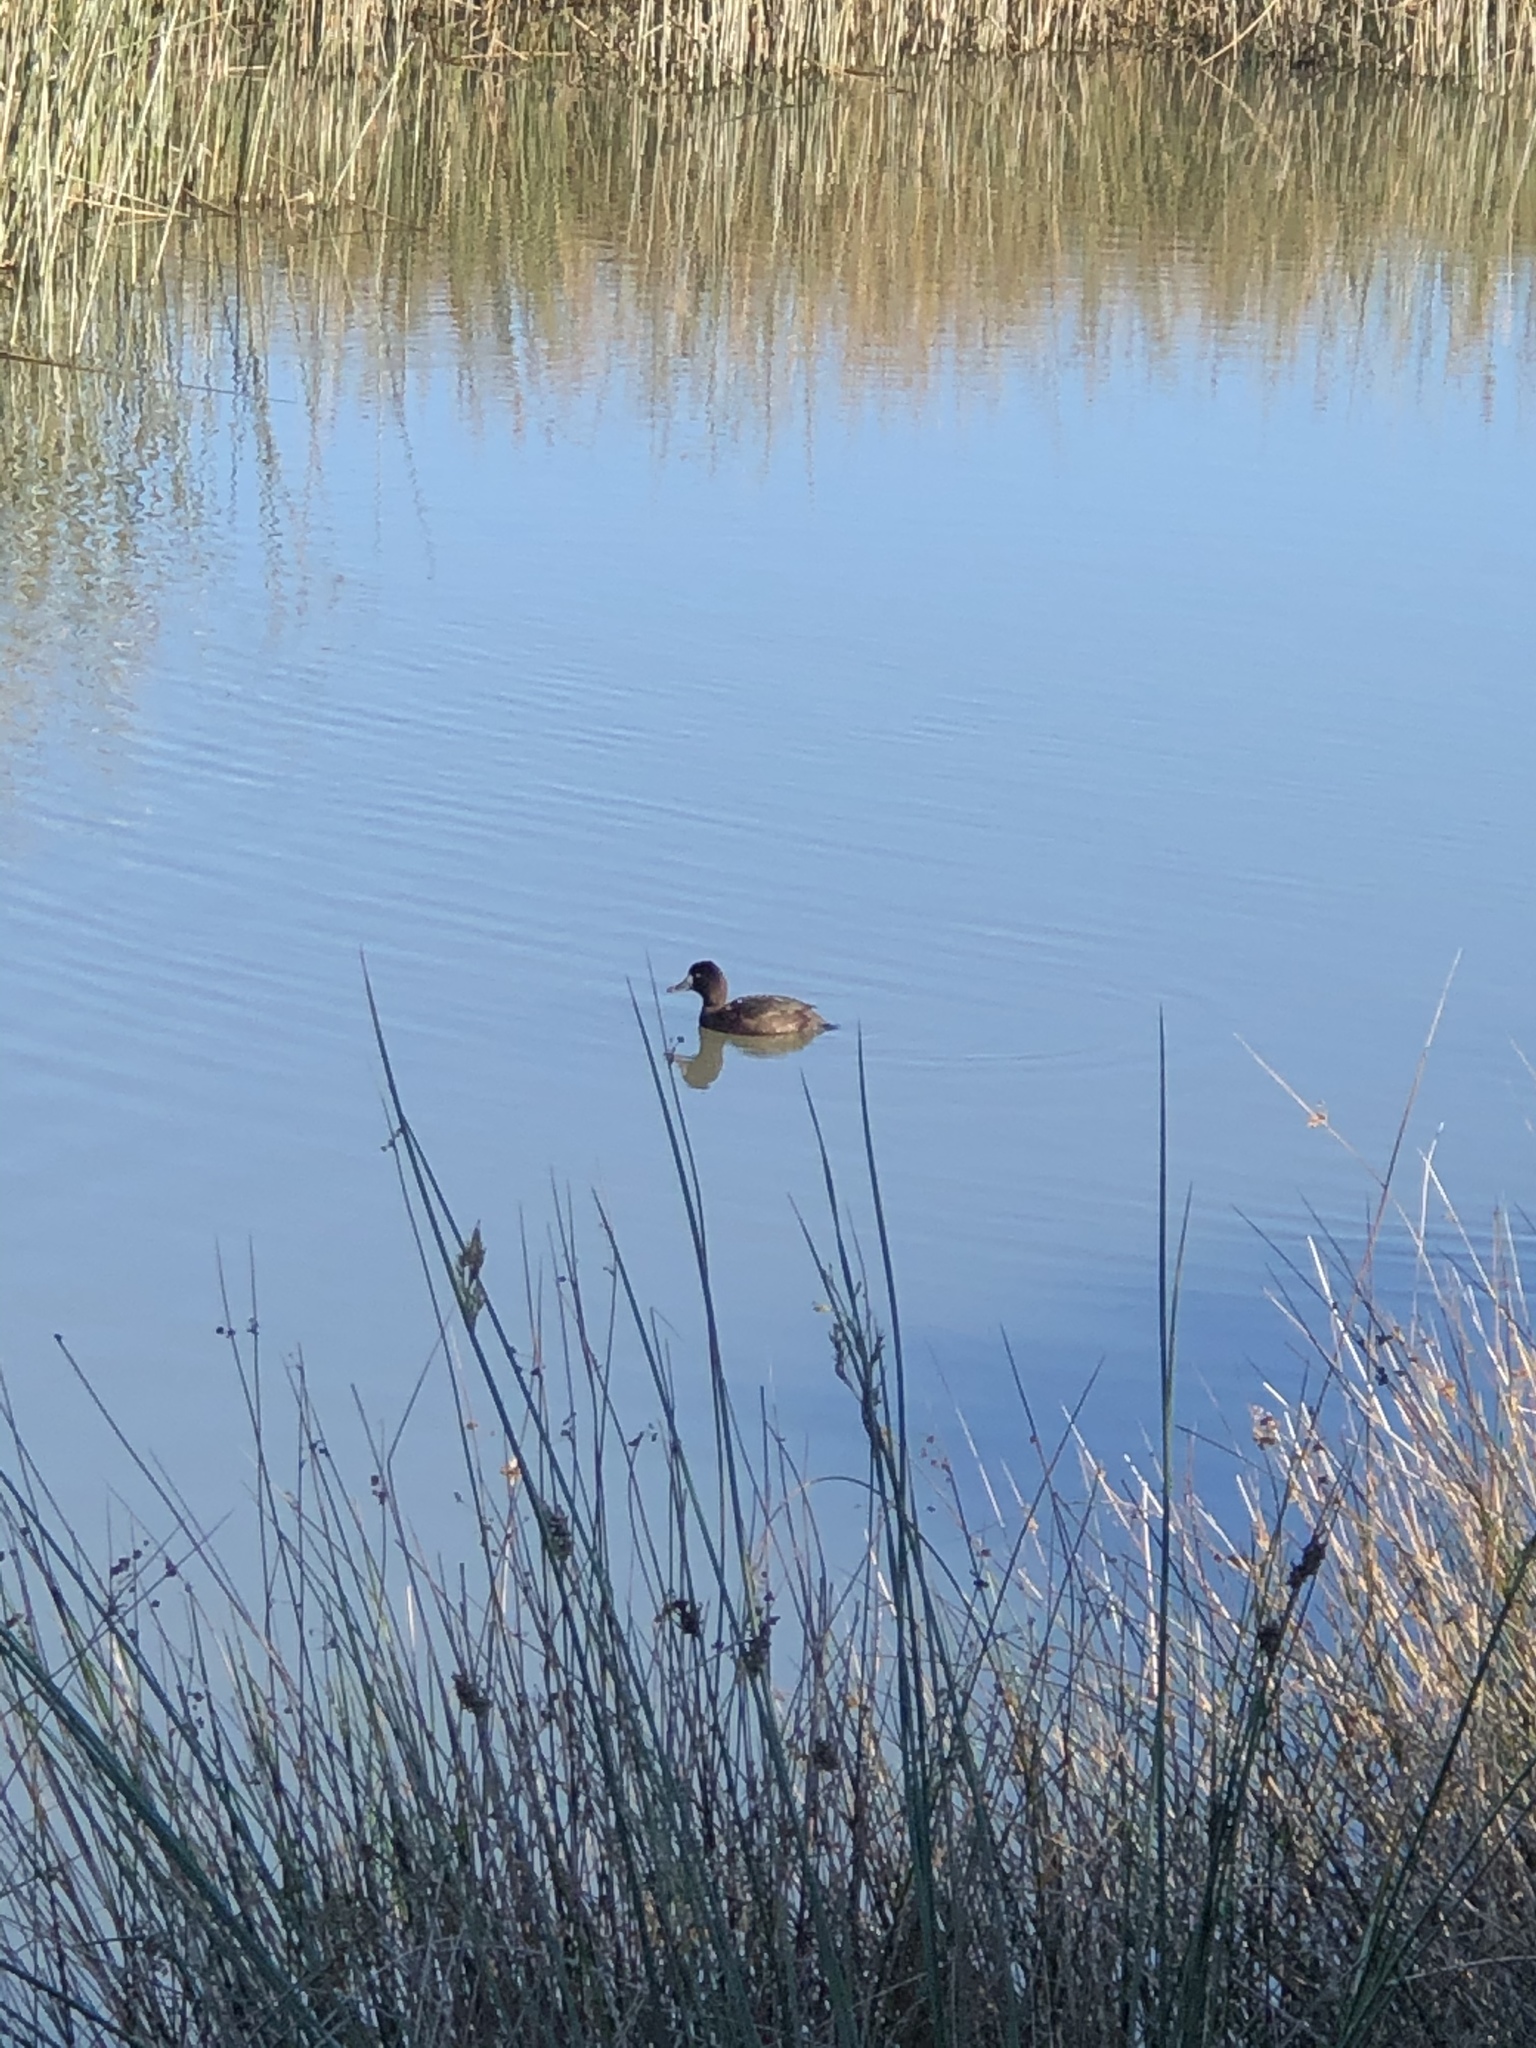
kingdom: Animalia
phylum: Chordata
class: Aves
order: Anseriformes
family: Anatidae
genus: Aythya
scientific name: Aythya novaeseelandiae
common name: New zealand scaup
